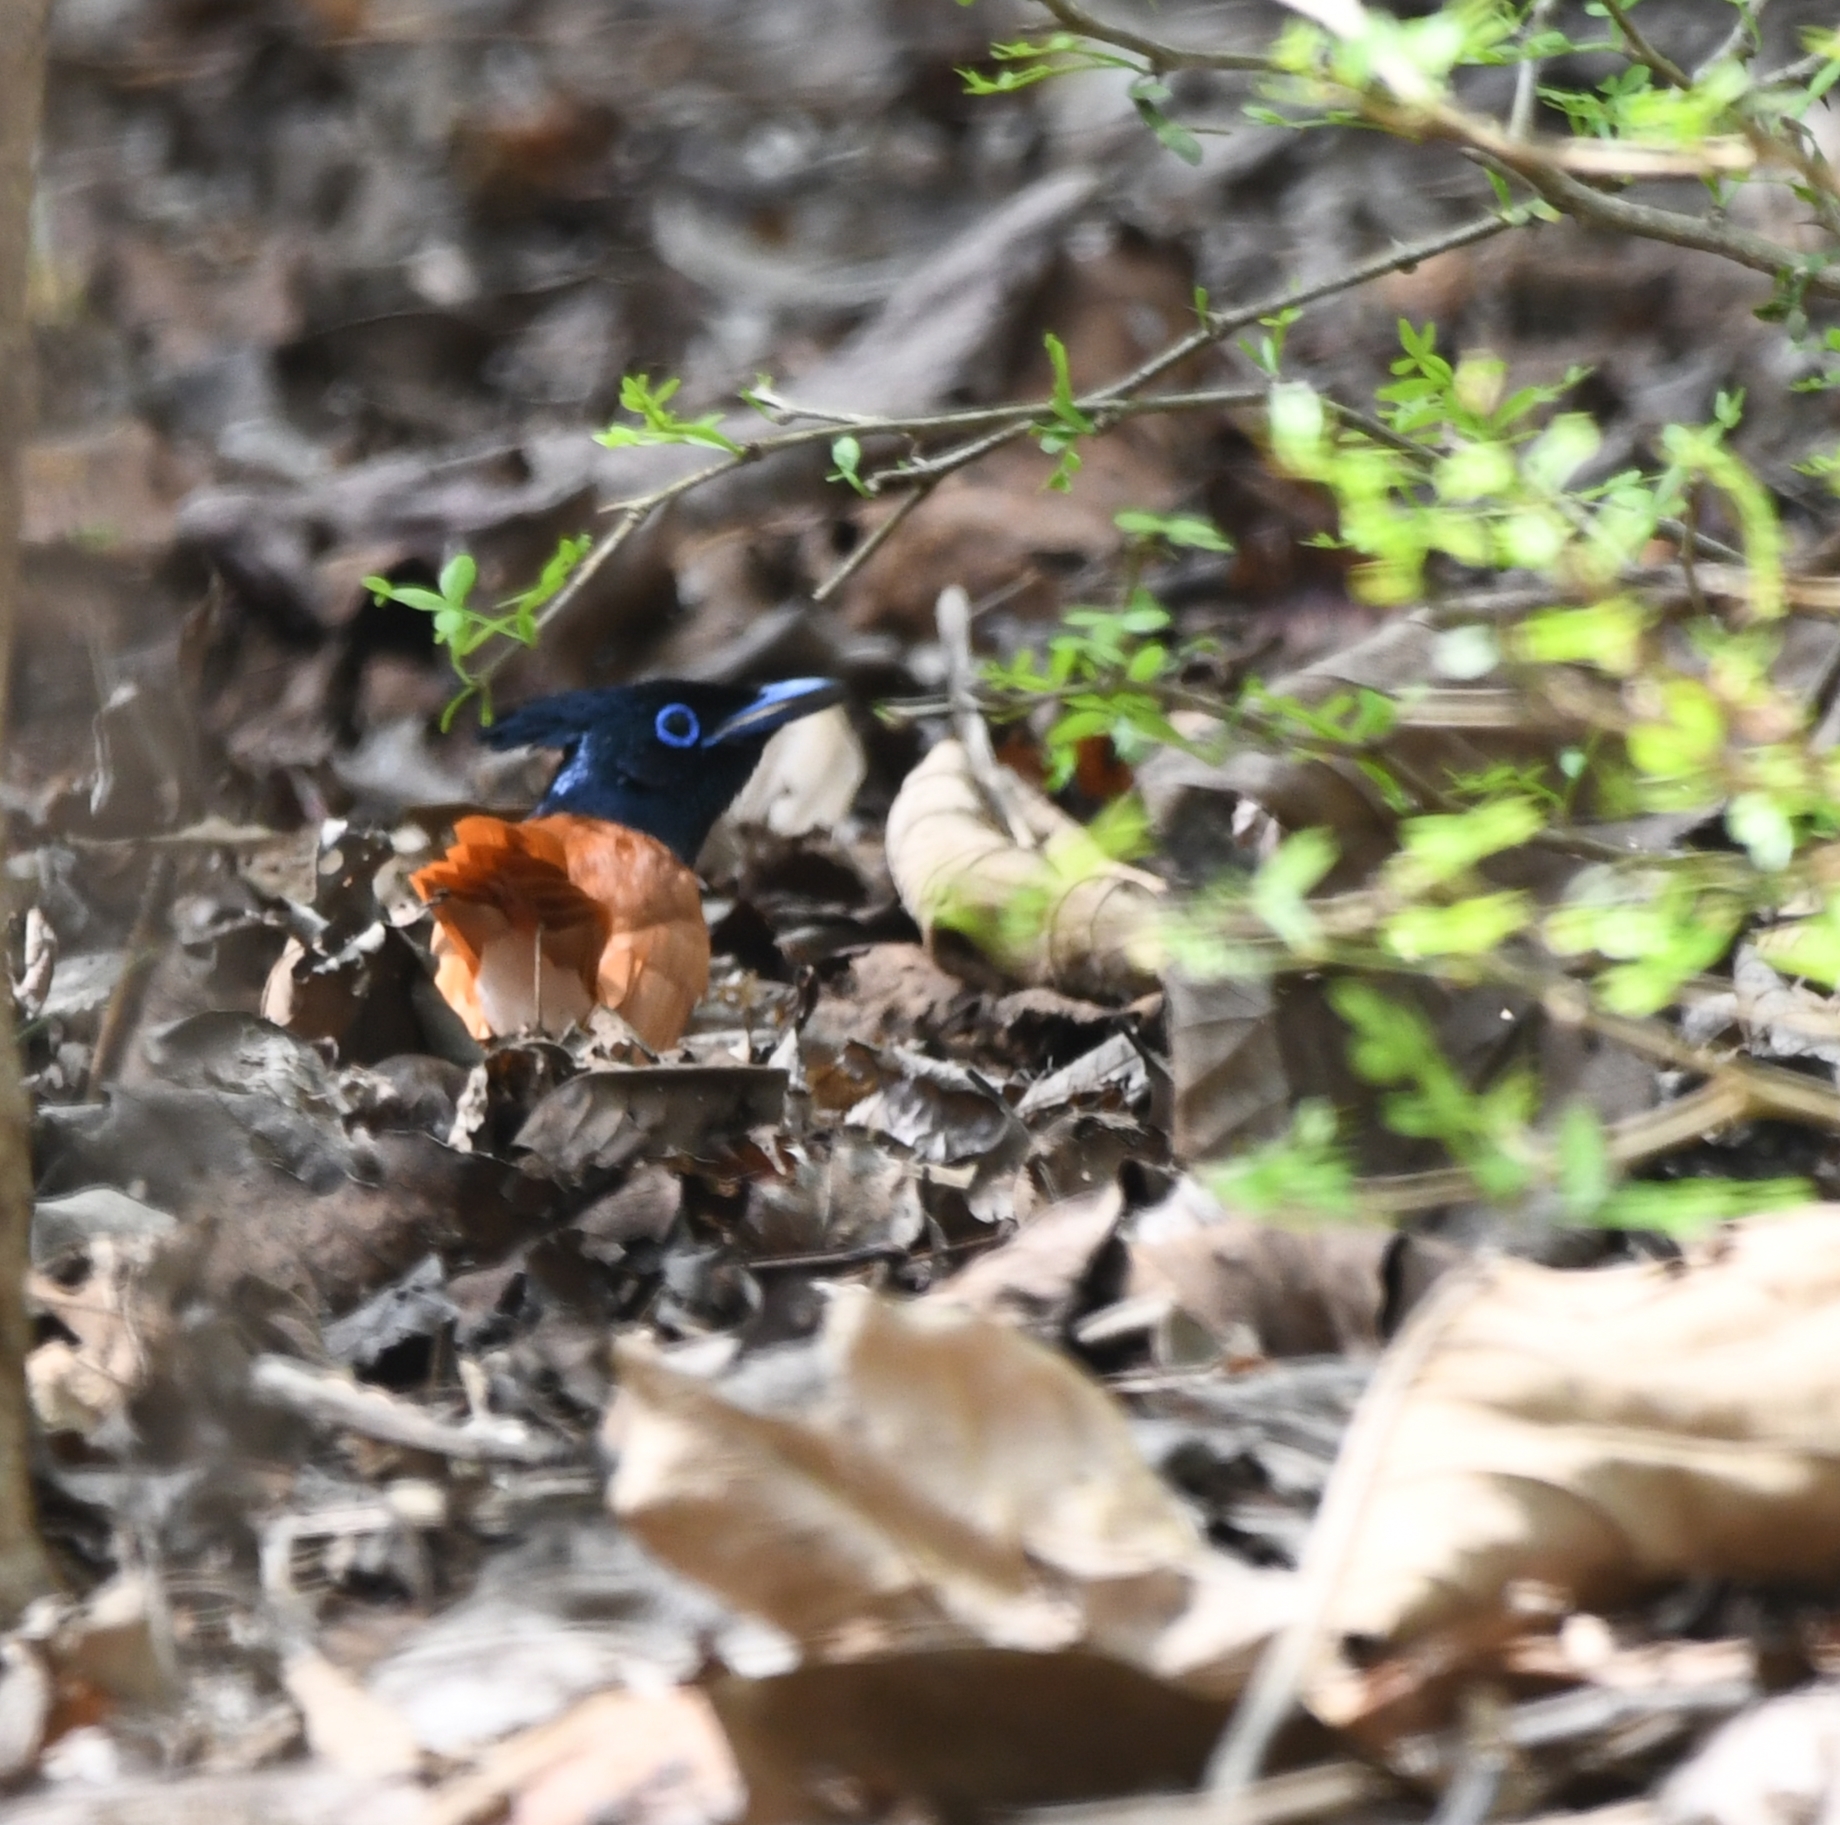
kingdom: Animalia
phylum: Chordata
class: Aves
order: Passeriformes
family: Monarchidae
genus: Terpsiphone
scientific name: Terpsiphone paradisi
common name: Indian paradise flycatcher
